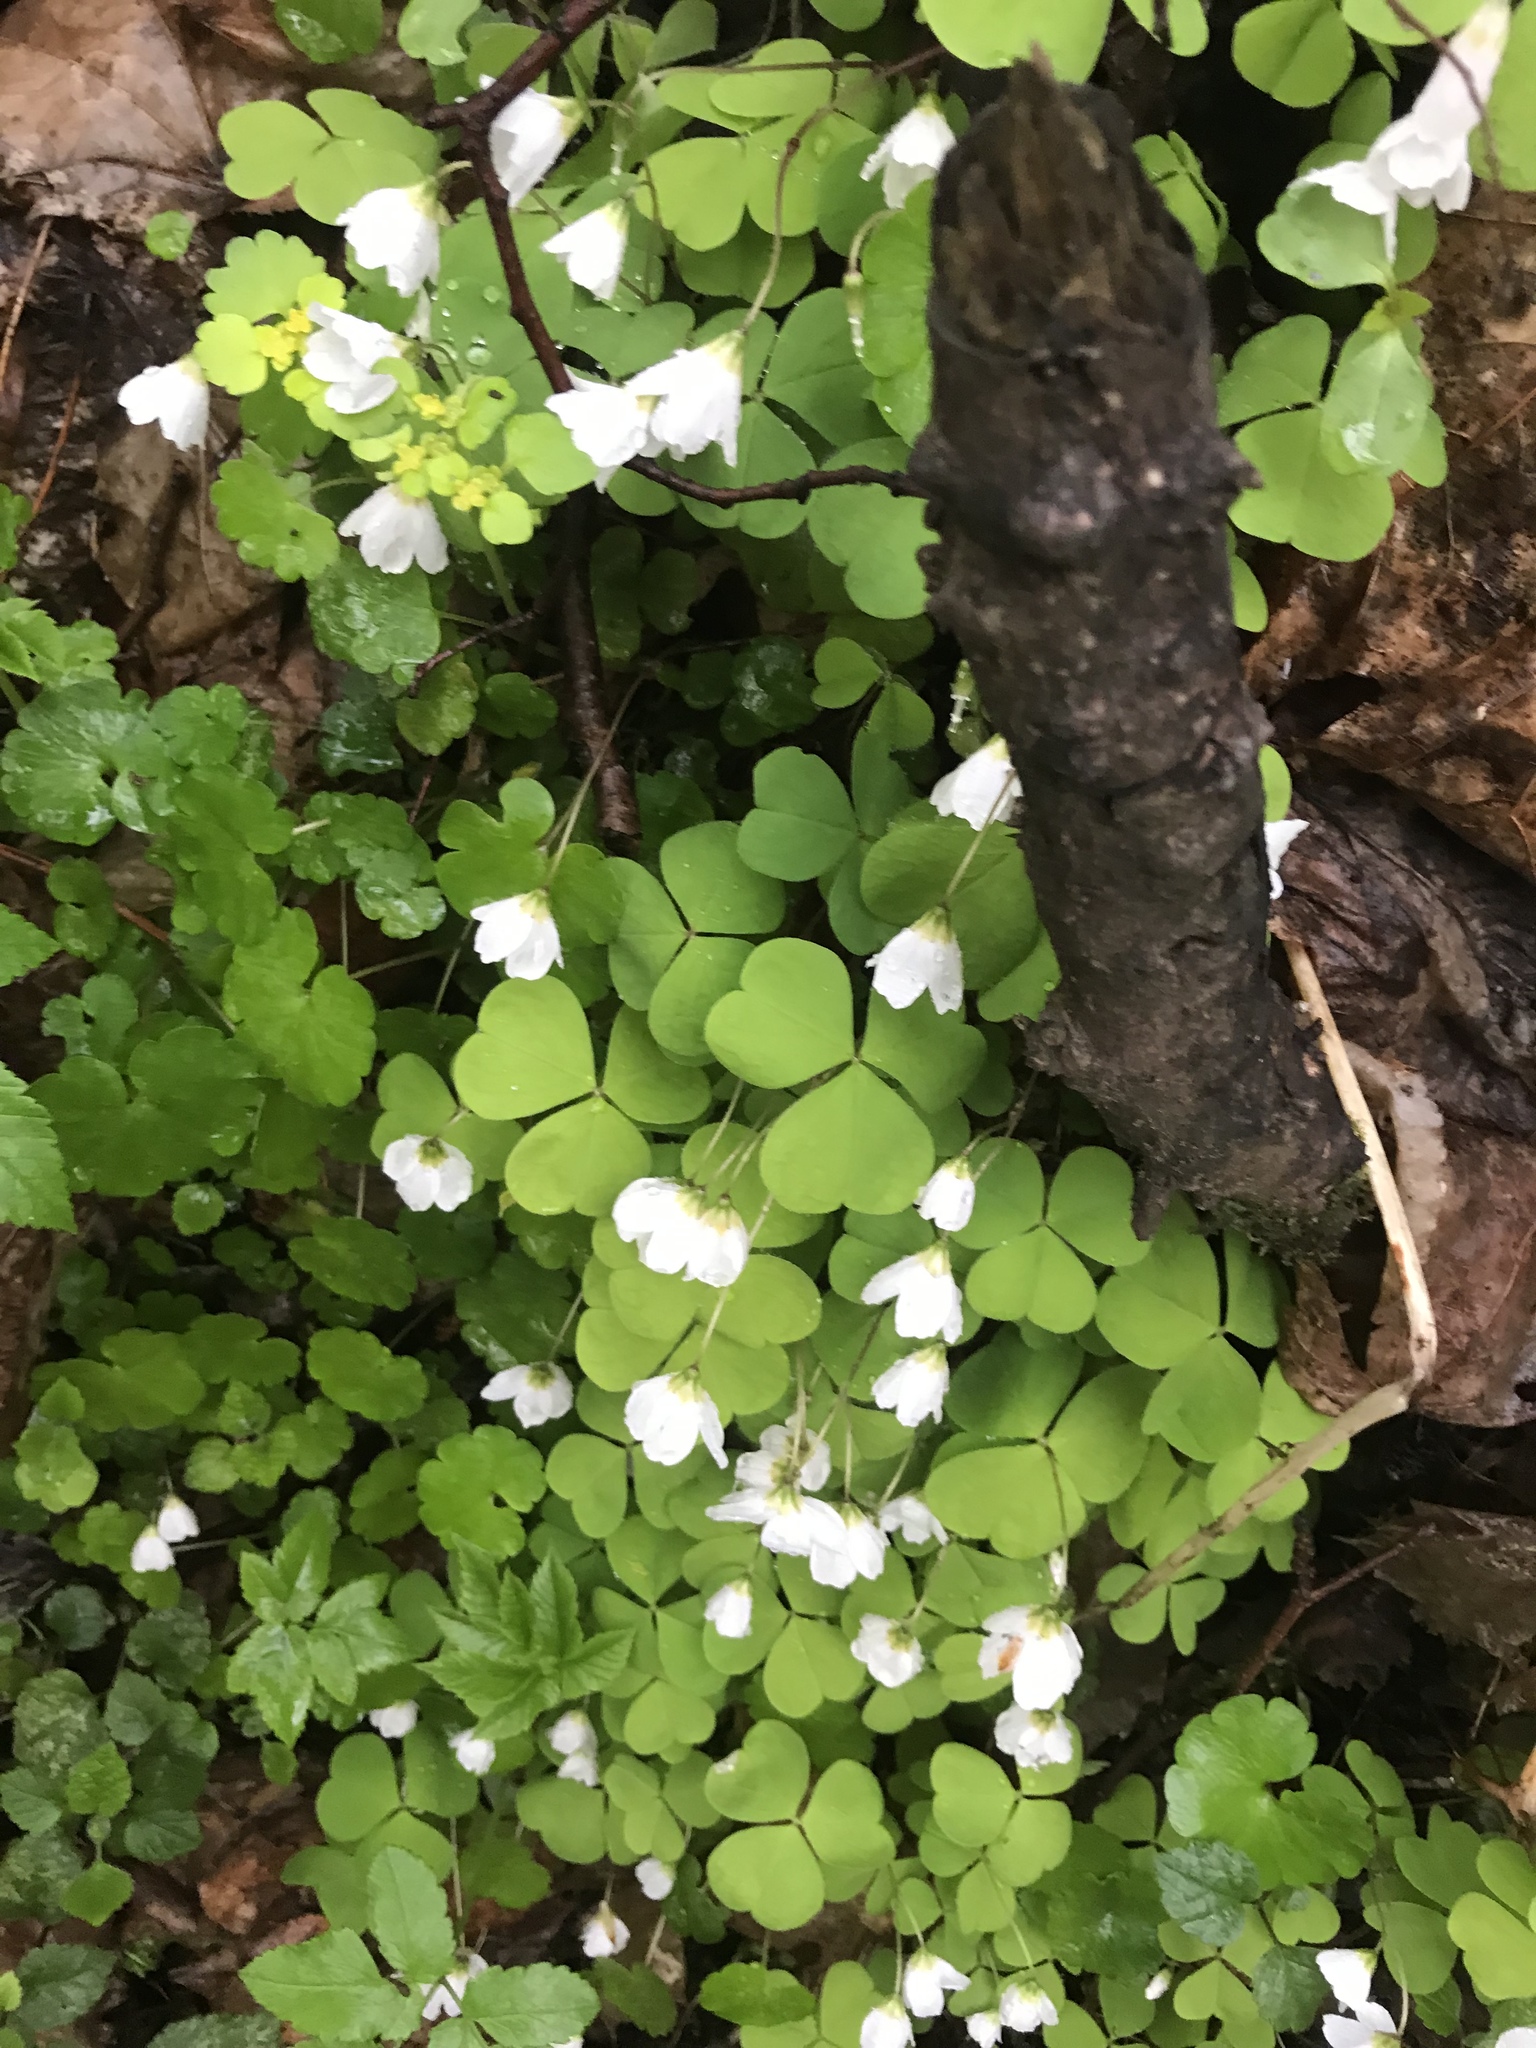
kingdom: Plantae
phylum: Tracheophyta
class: Magnoliopsida
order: Oxalidales
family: Oxalidaceae
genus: Oxalis
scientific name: Oxalis acetosella
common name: Wood-sorrel
